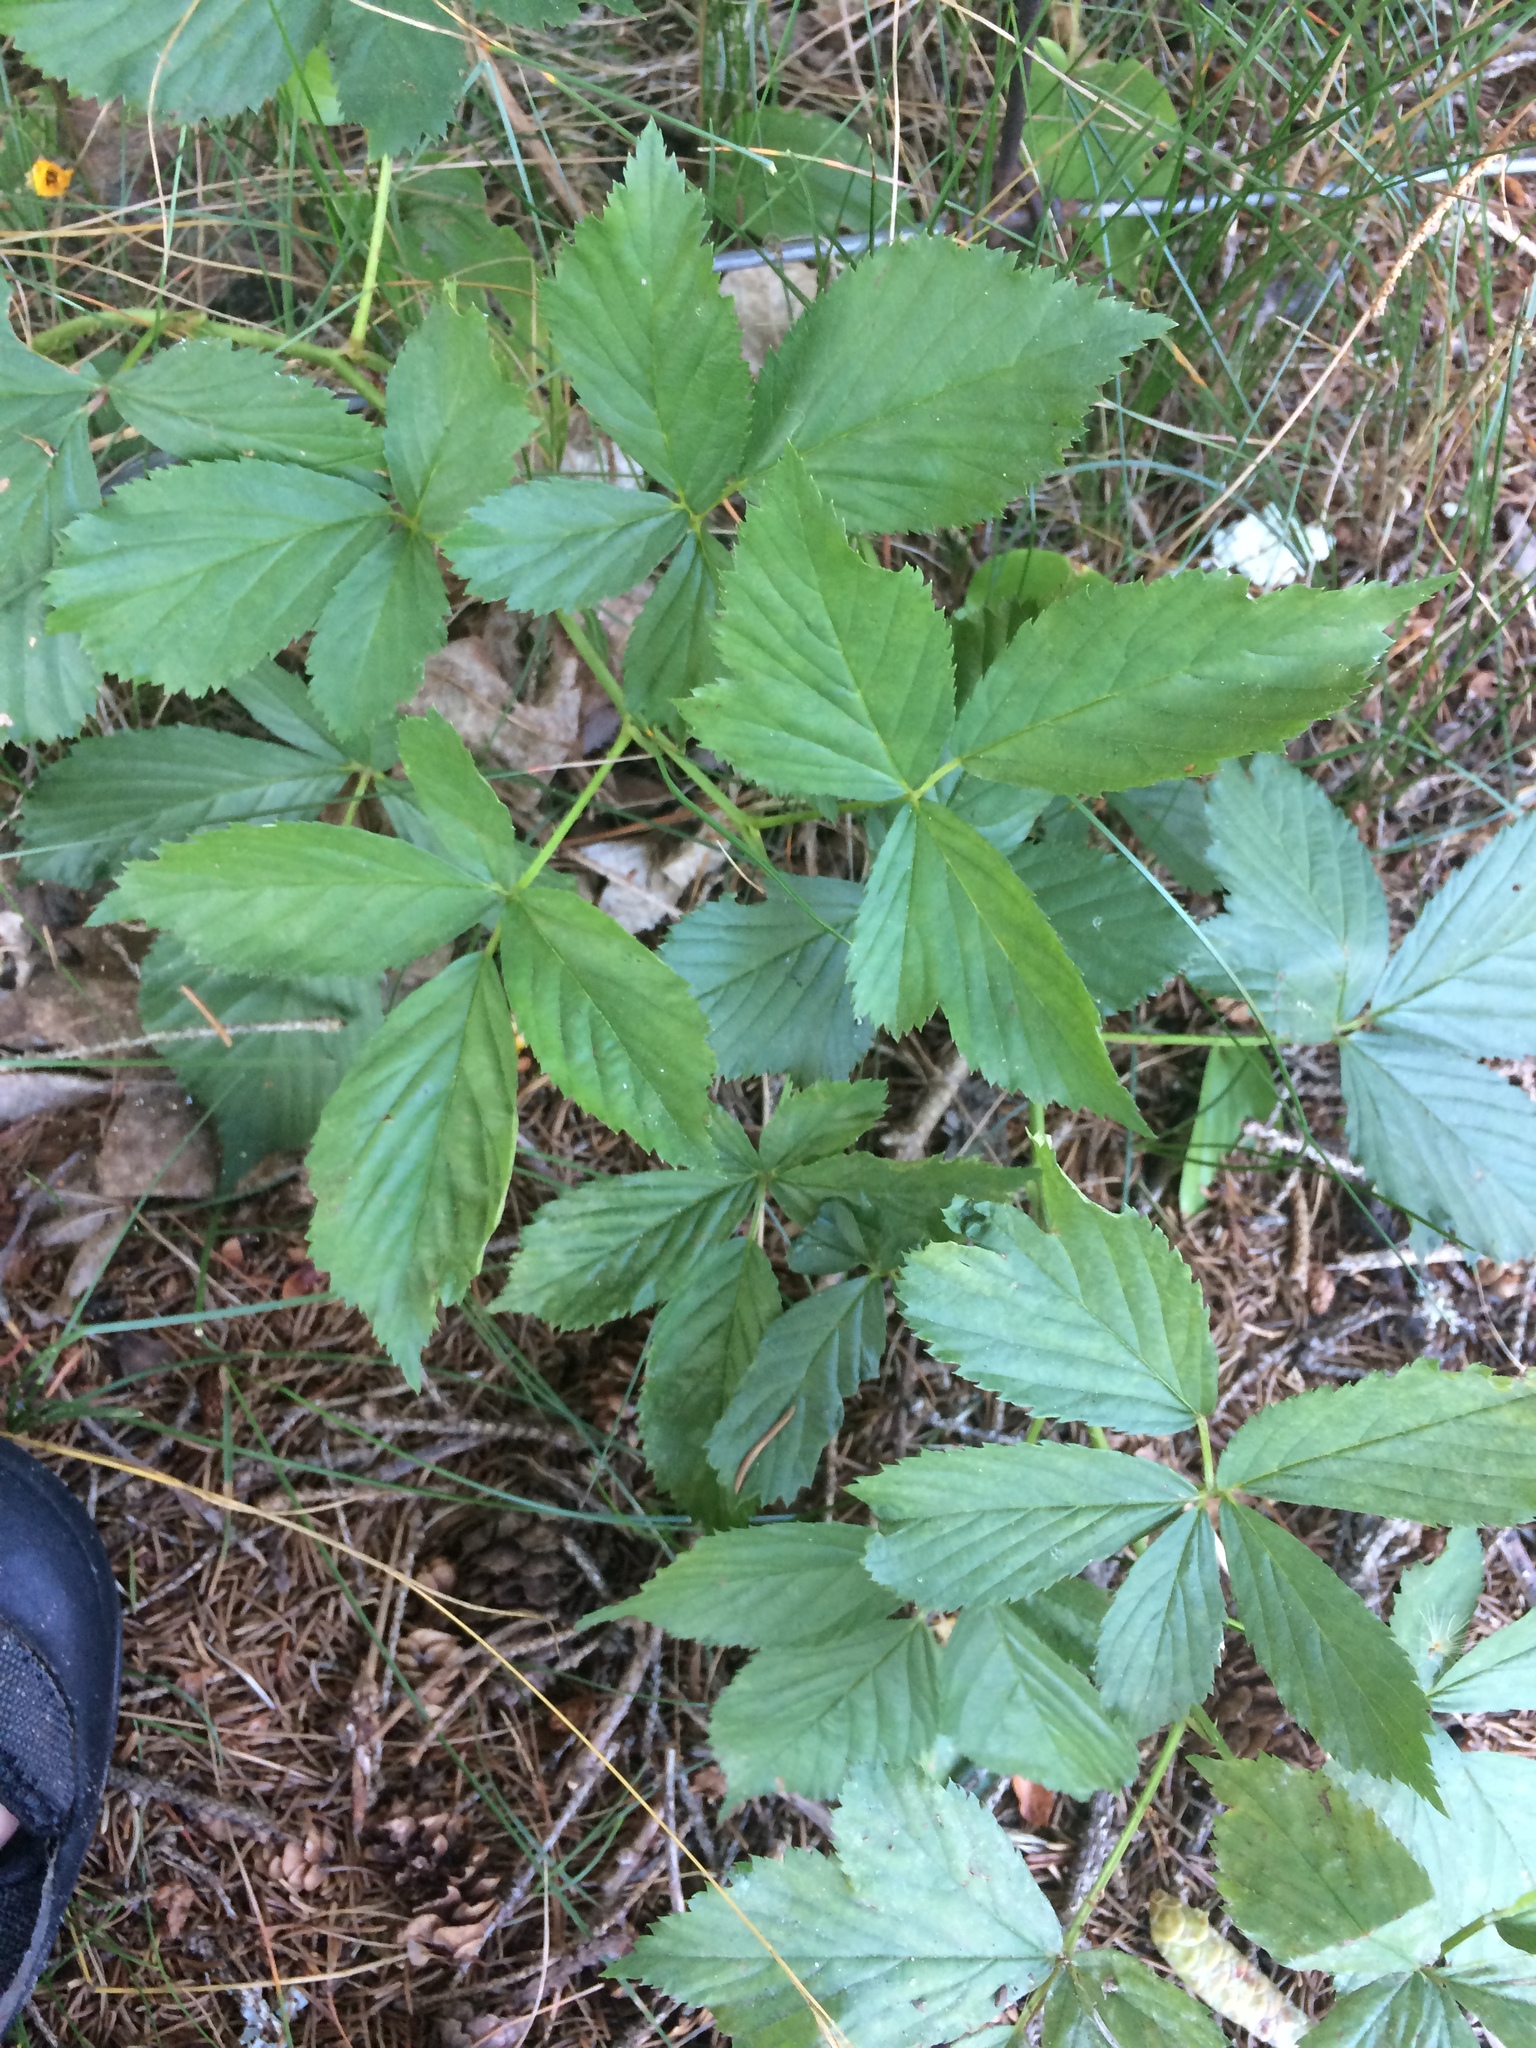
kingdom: Plantae
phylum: Tracheophyta
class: Magnoliopsida
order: Rosales
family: Rosaceae
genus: Rubus
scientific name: Rubus setosus
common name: Bristly blackberry
